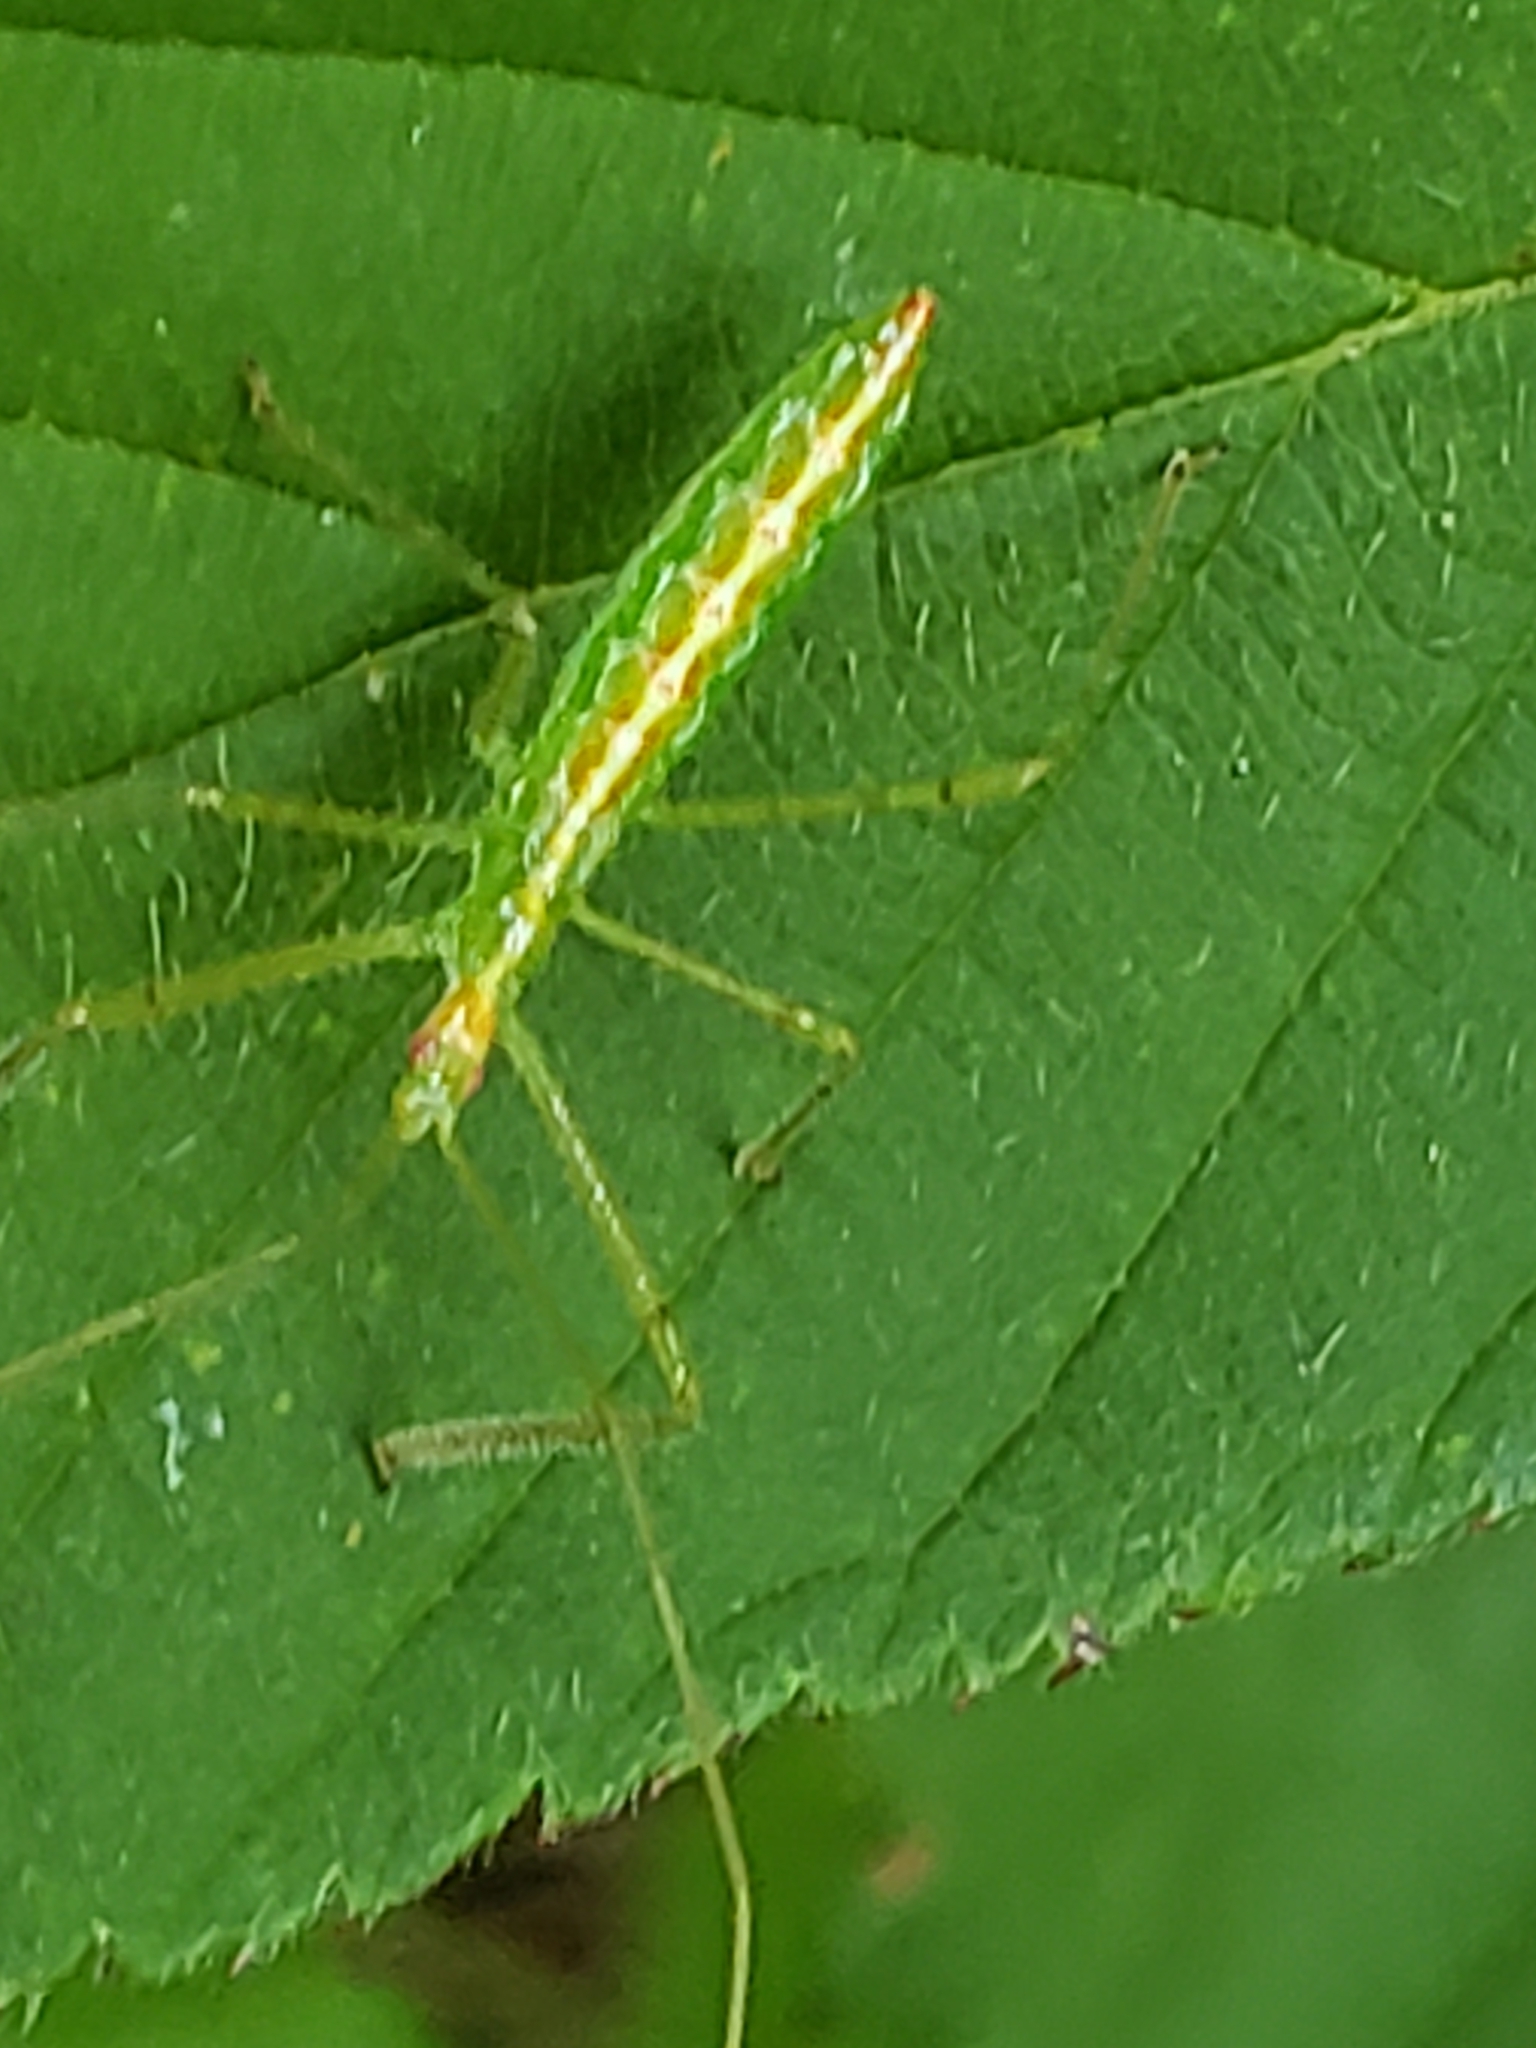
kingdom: Animalia
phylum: Arthropoda
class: Insecta
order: Hemiptera
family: Reduviidae
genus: Zelus
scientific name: Zelus luridus
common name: Pale green assassin bug
